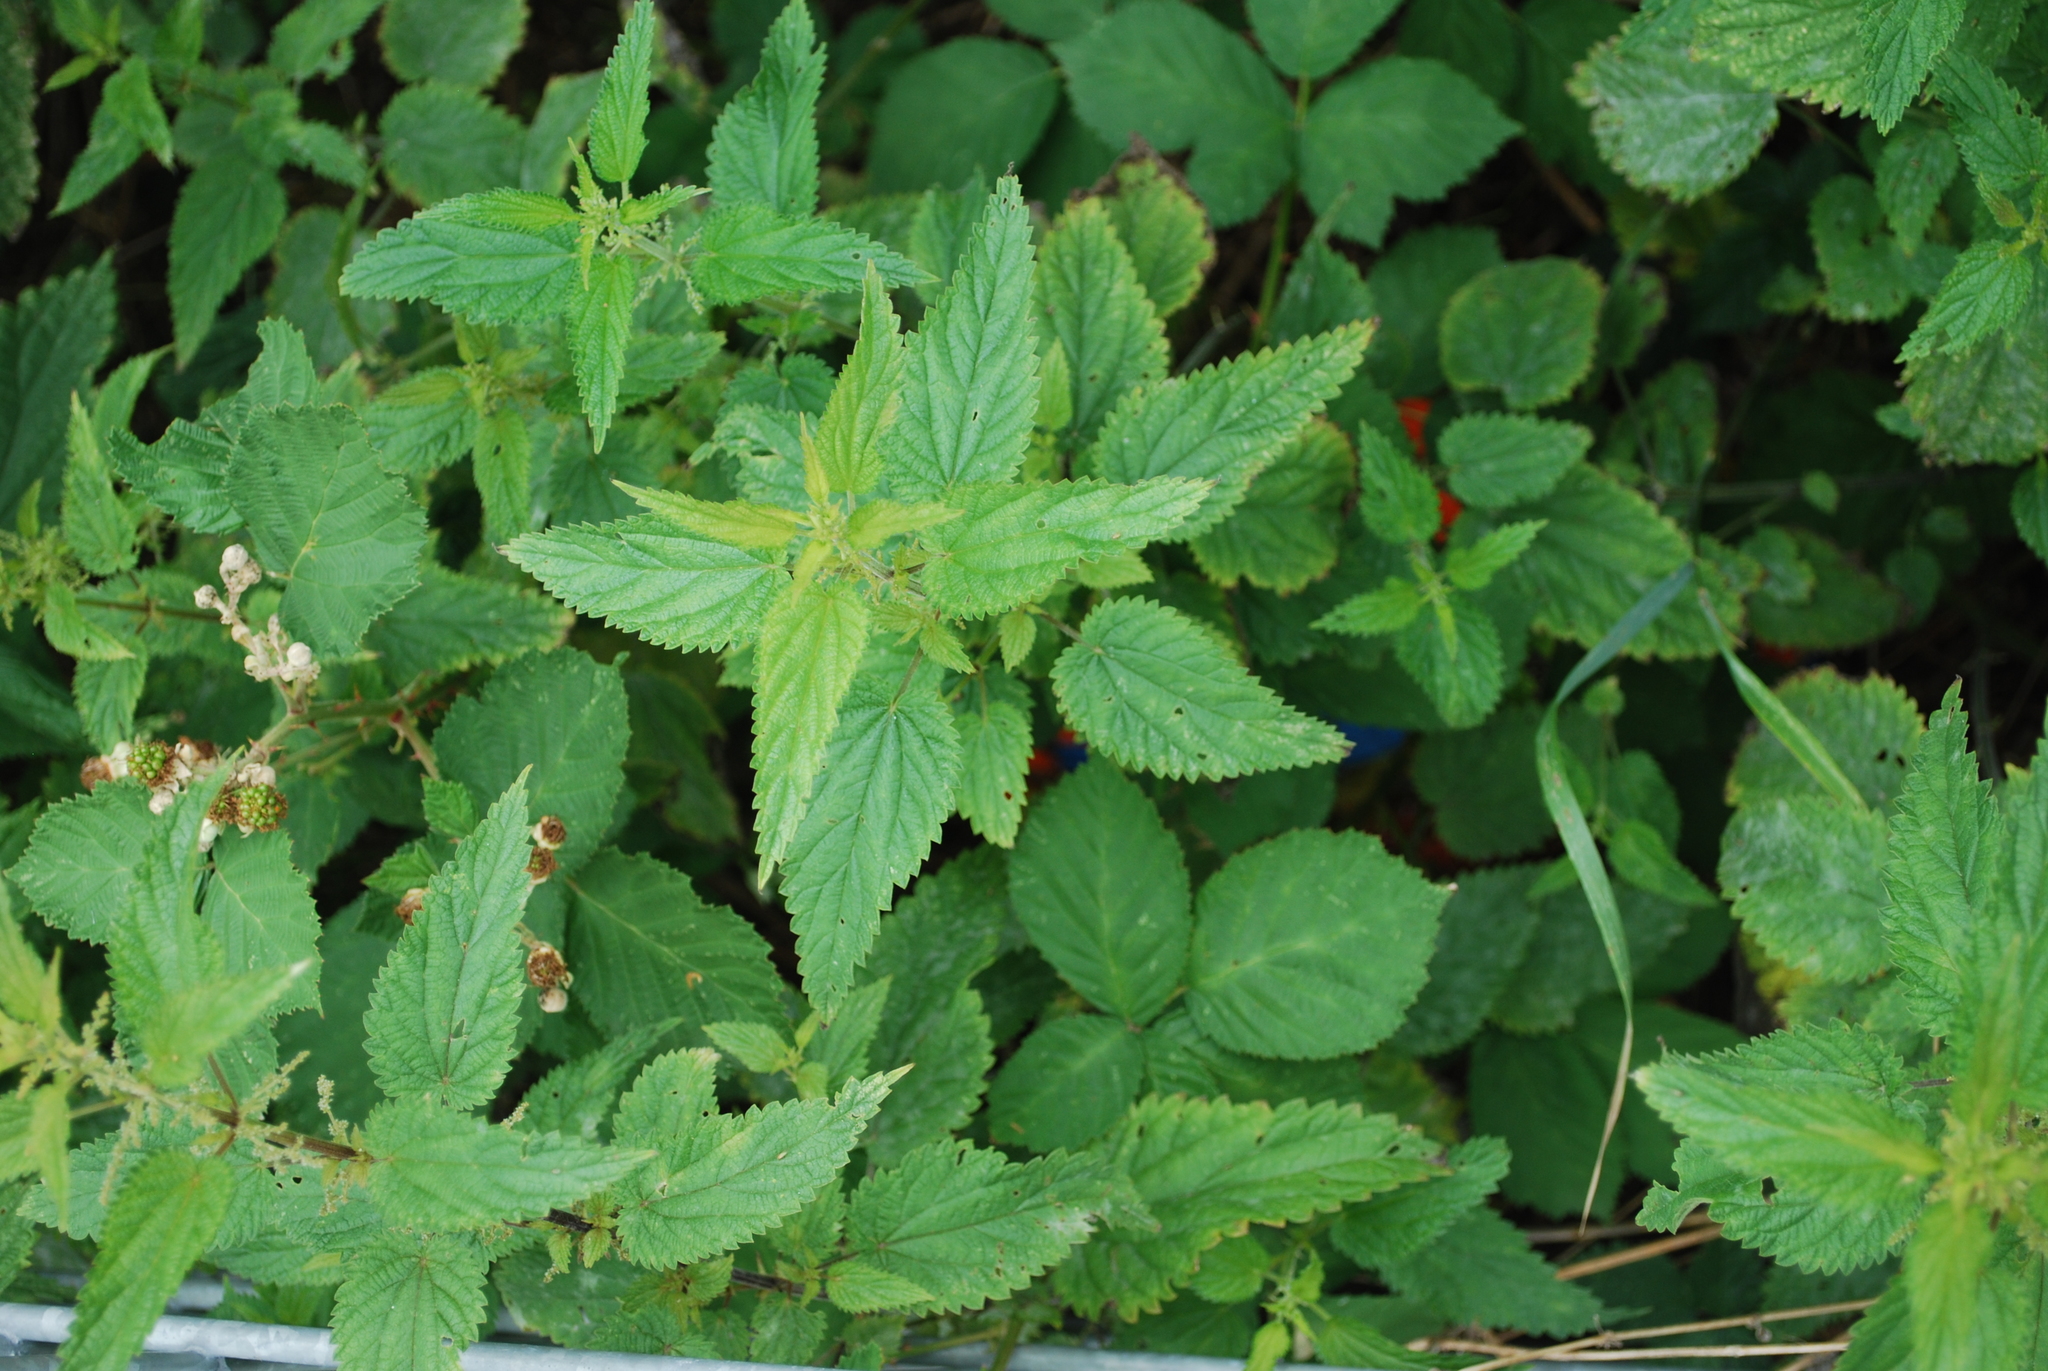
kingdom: Plantae
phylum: Tracheophyta
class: Magnoliopsida
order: Rosales
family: Urticaceae
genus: Urtica
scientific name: Urtica dioica
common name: Common nettle
